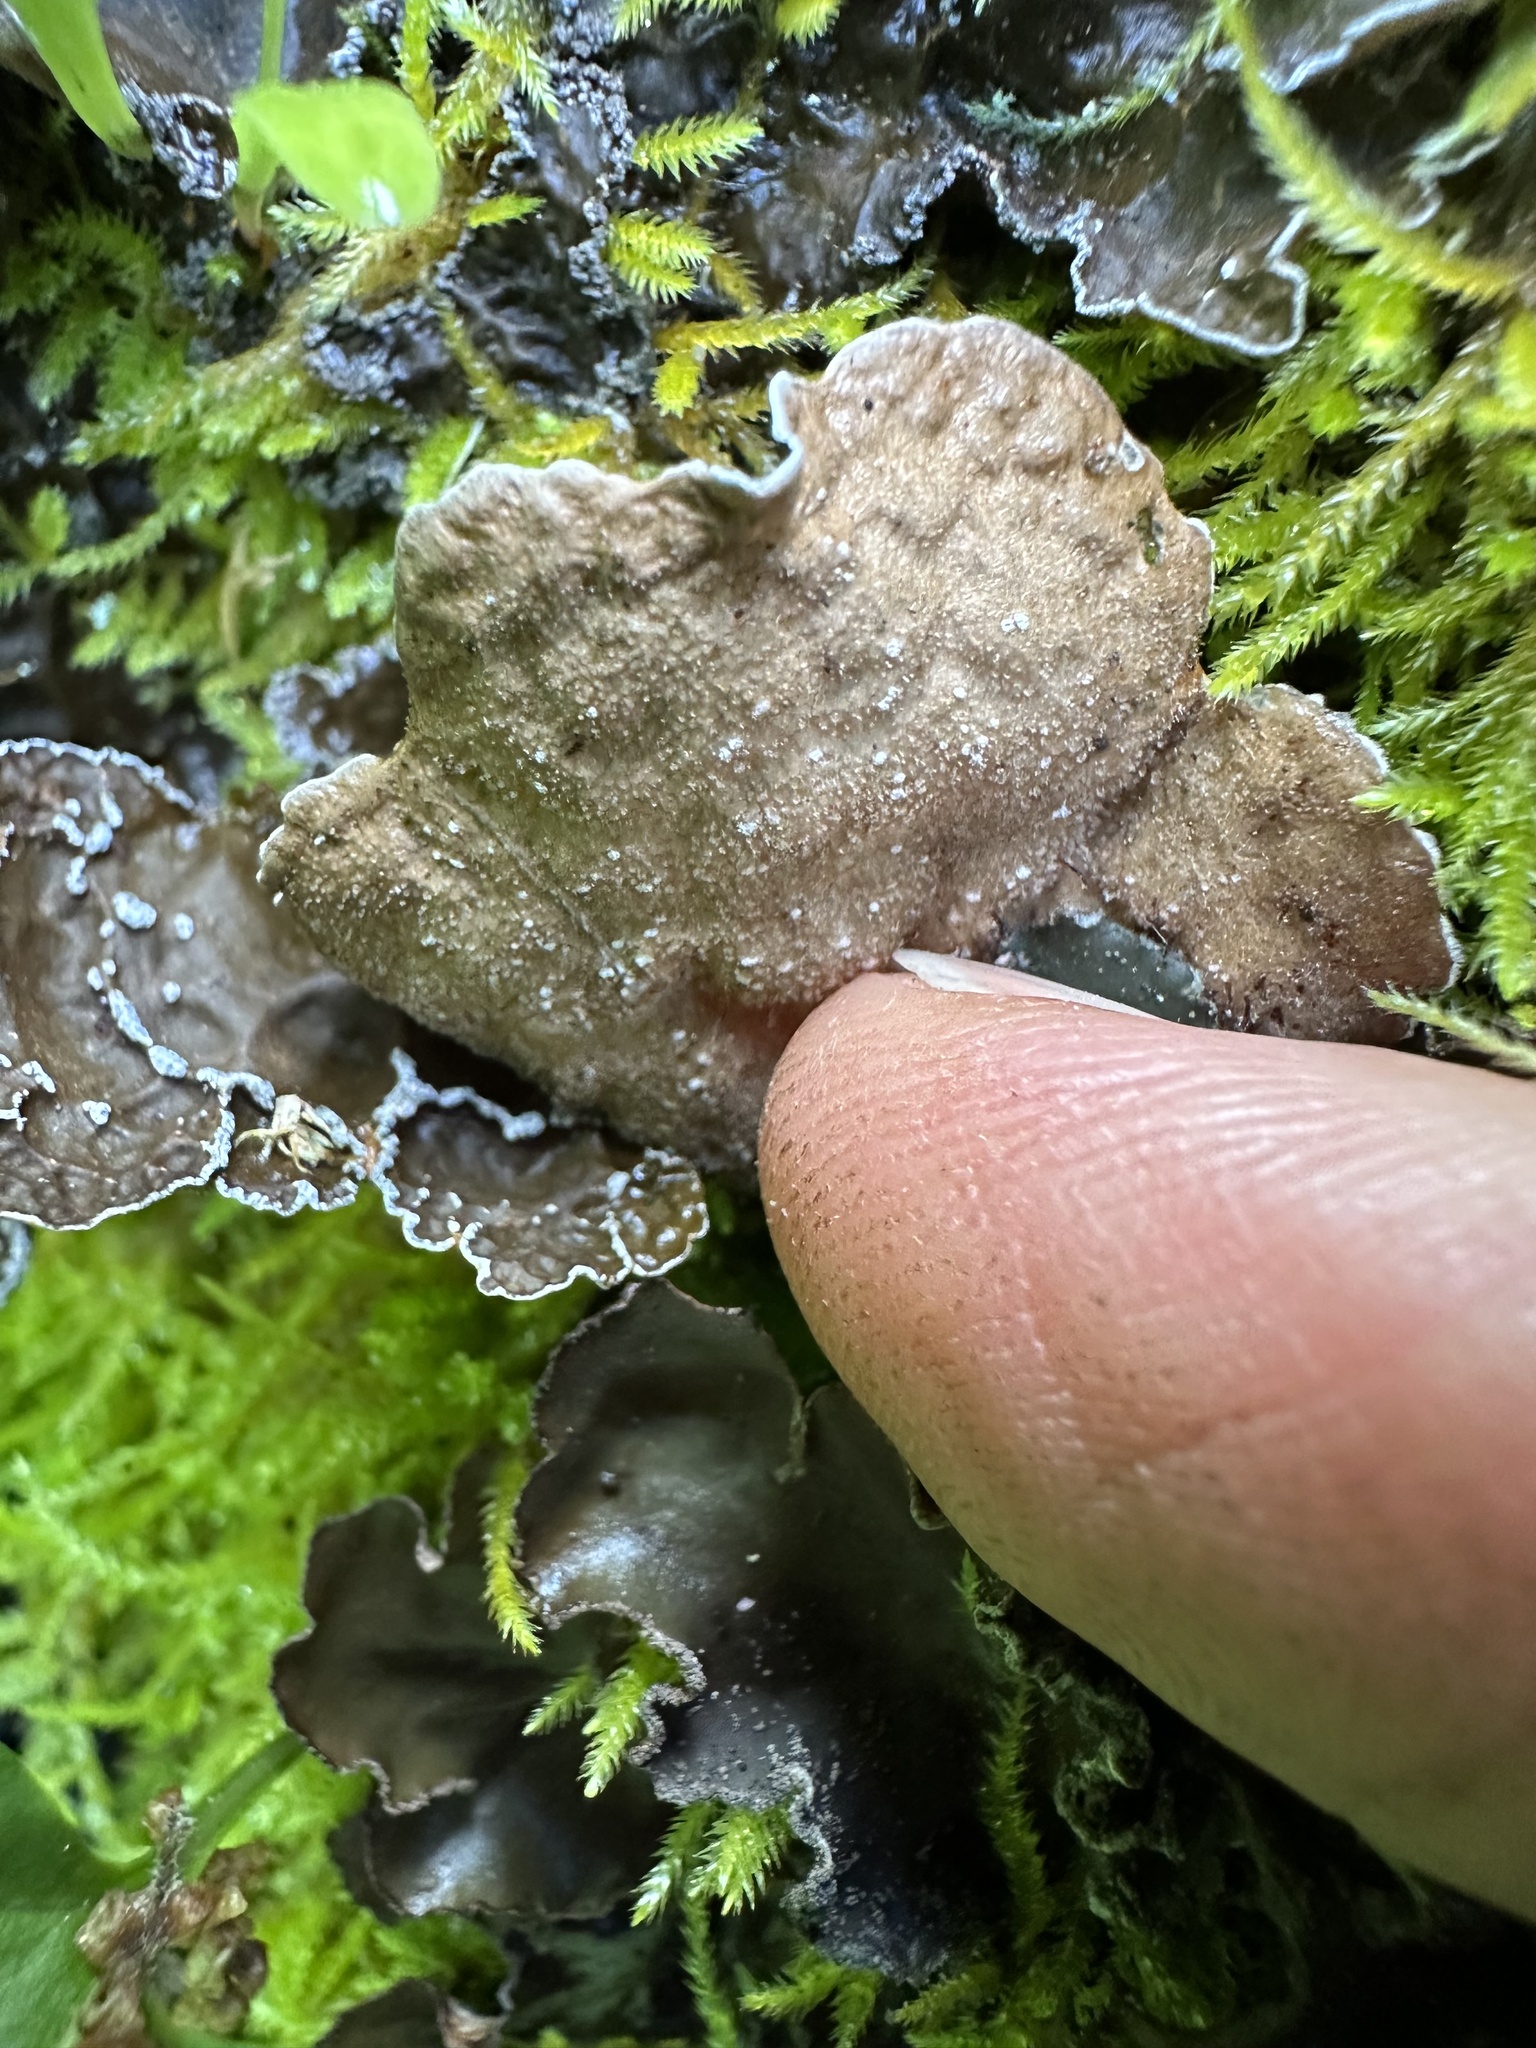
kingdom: Fungi
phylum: Ascomycota
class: Lecanoromycetes
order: Peltigerales
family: Lobariaceae
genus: Lobaria
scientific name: Lobaria anomala
